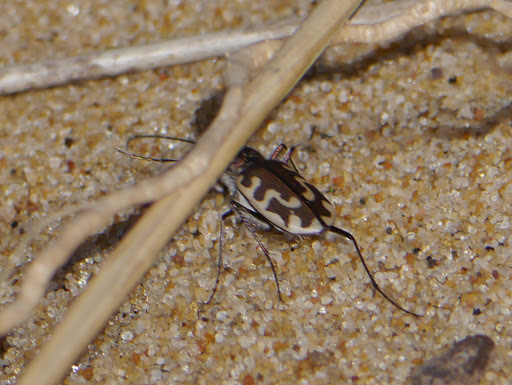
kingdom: Animalia
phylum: Arthropoda
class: Insecta
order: Coleoptera
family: Carabidae
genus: Cicindela
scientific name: Cicindela hirticollis
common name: Hairy-necked tiger beetle
